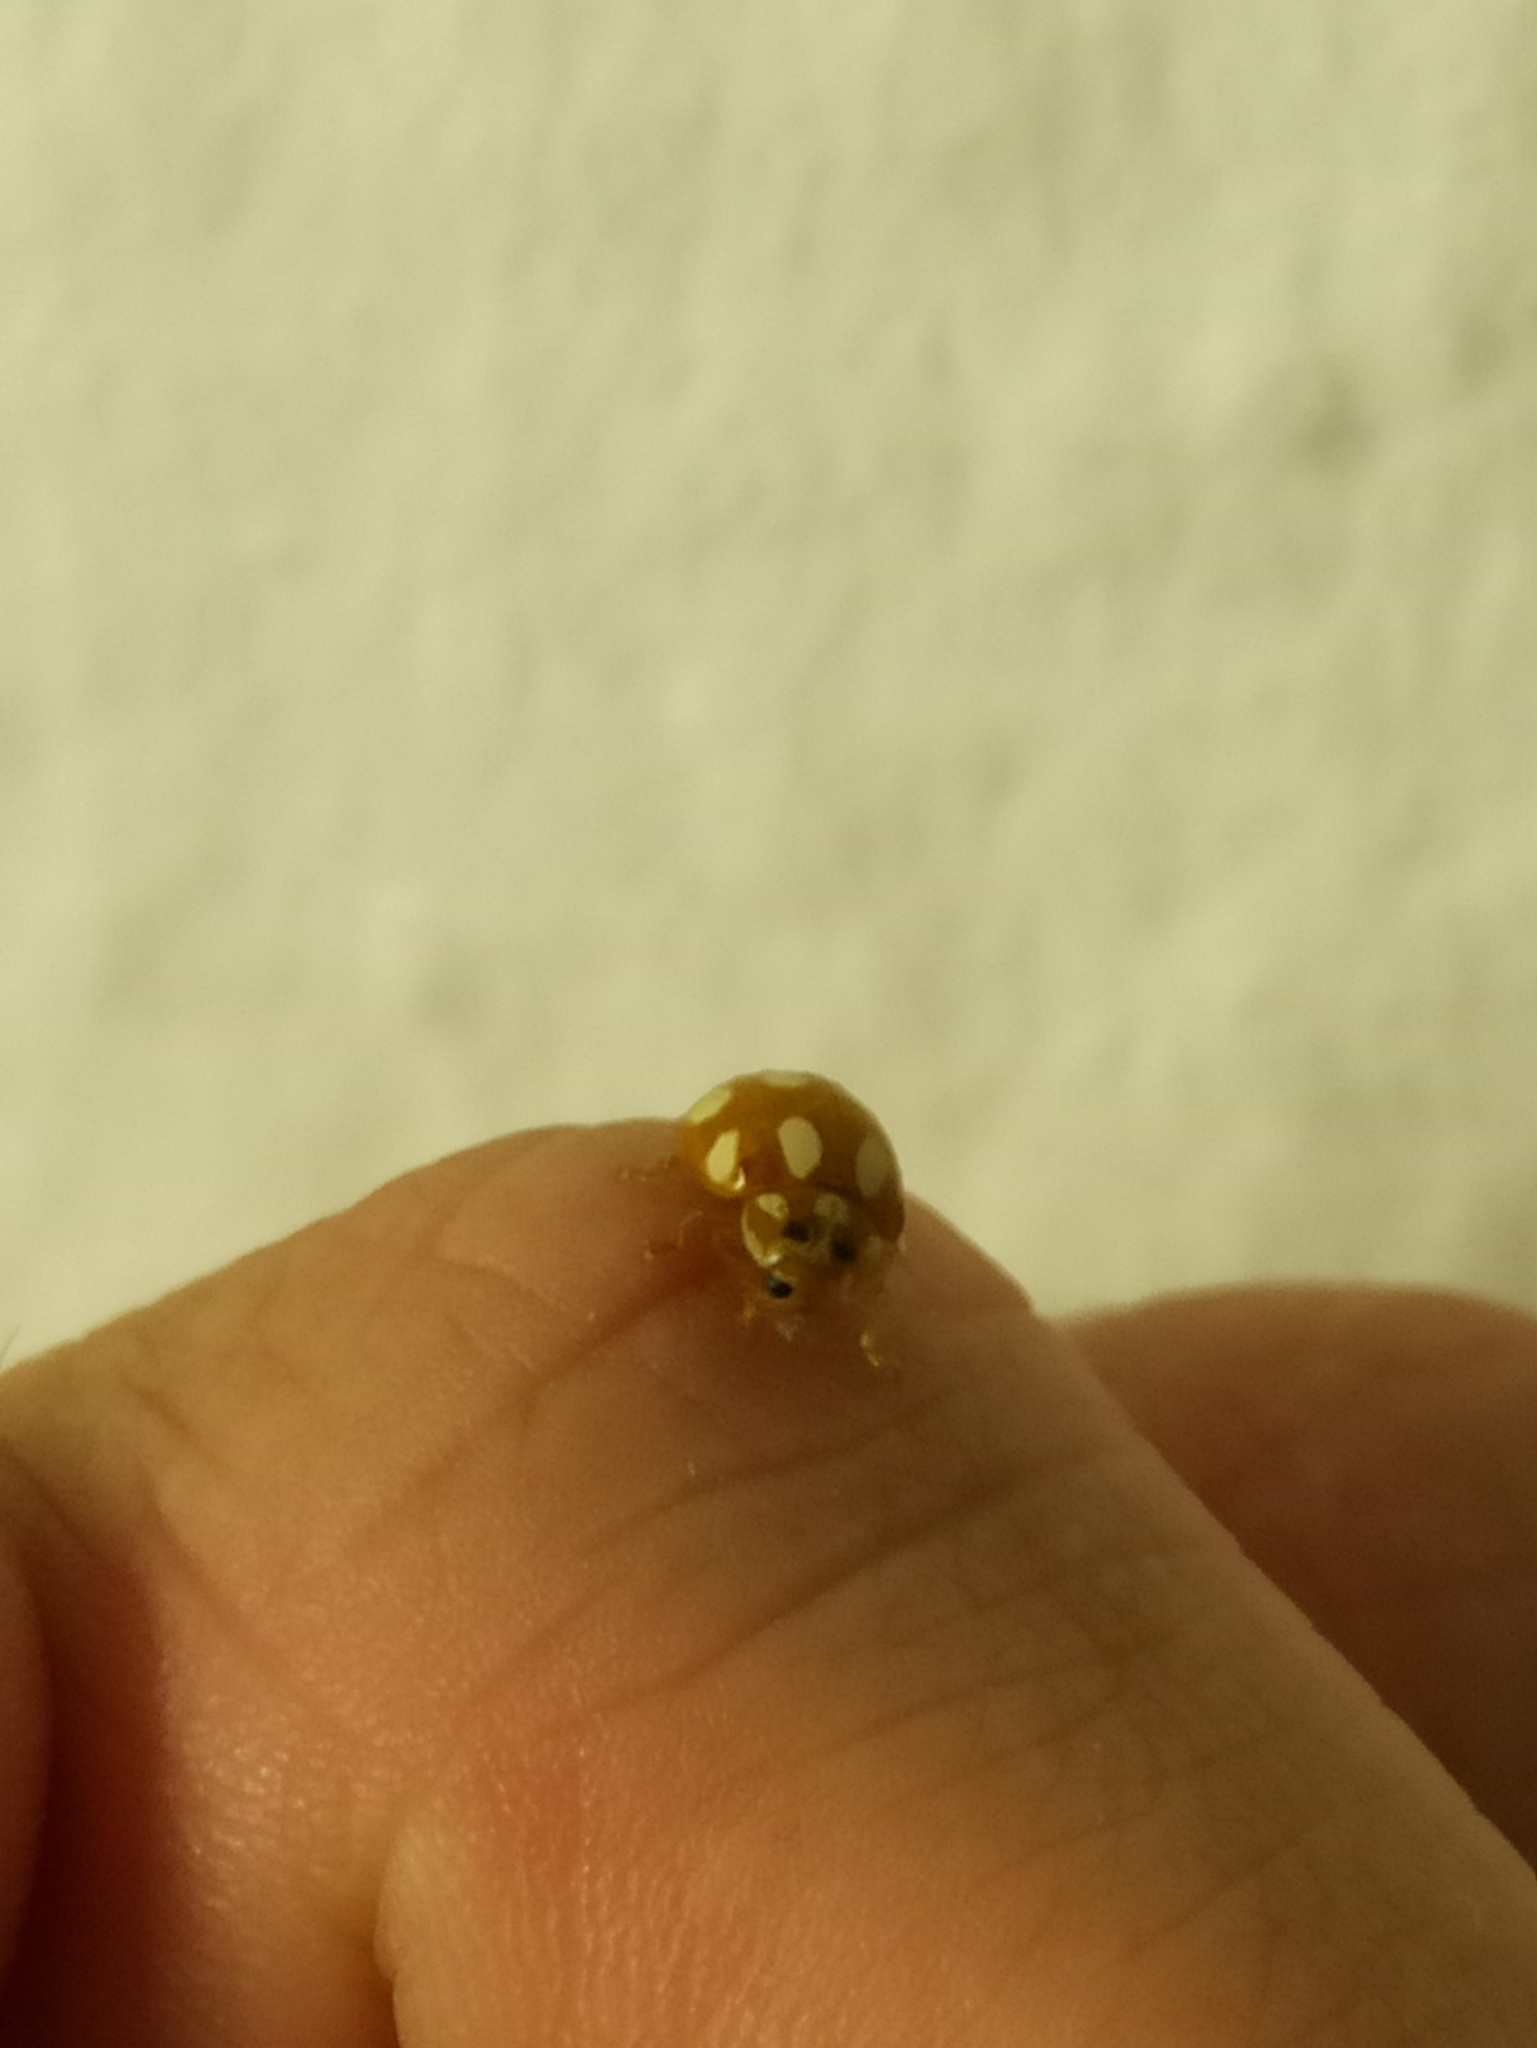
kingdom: Animalia
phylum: Arthropoda
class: Insecta
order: Coleoptera
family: Coccinellidae
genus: Calvia
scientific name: Calvia decemguttata
